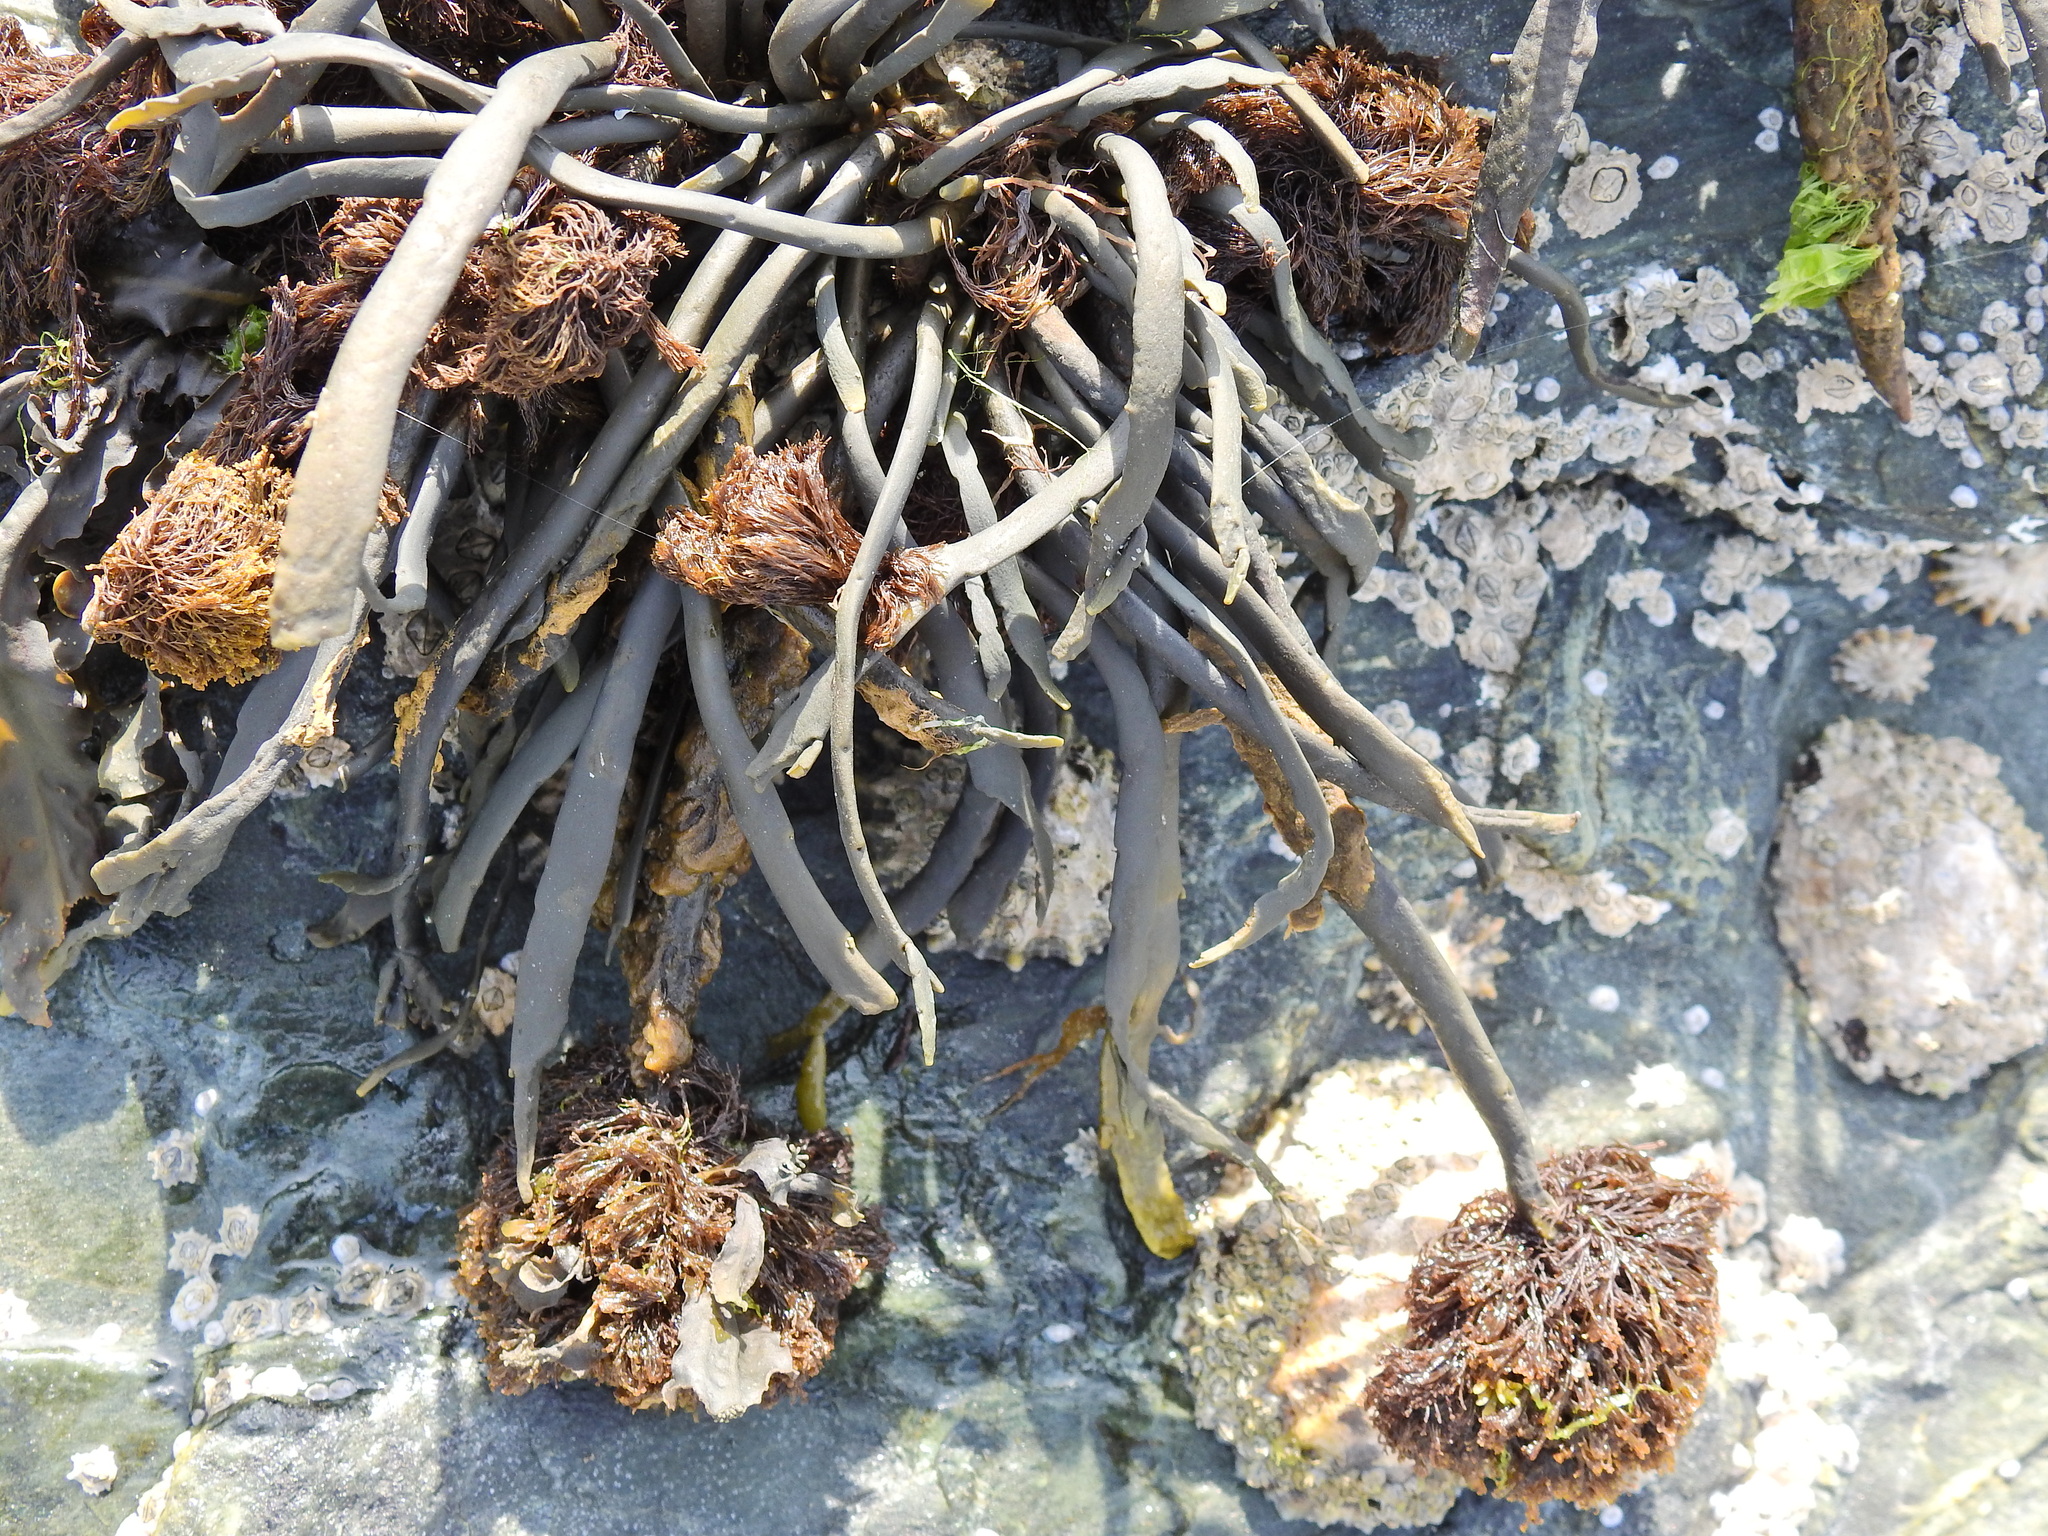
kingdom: Chromista
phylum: Ochrophyta
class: Phaeophyceae
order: Fucales
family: Fucaceae
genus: Ascophyllum
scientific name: Ascophyllum nodosum
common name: Knotted wrack
